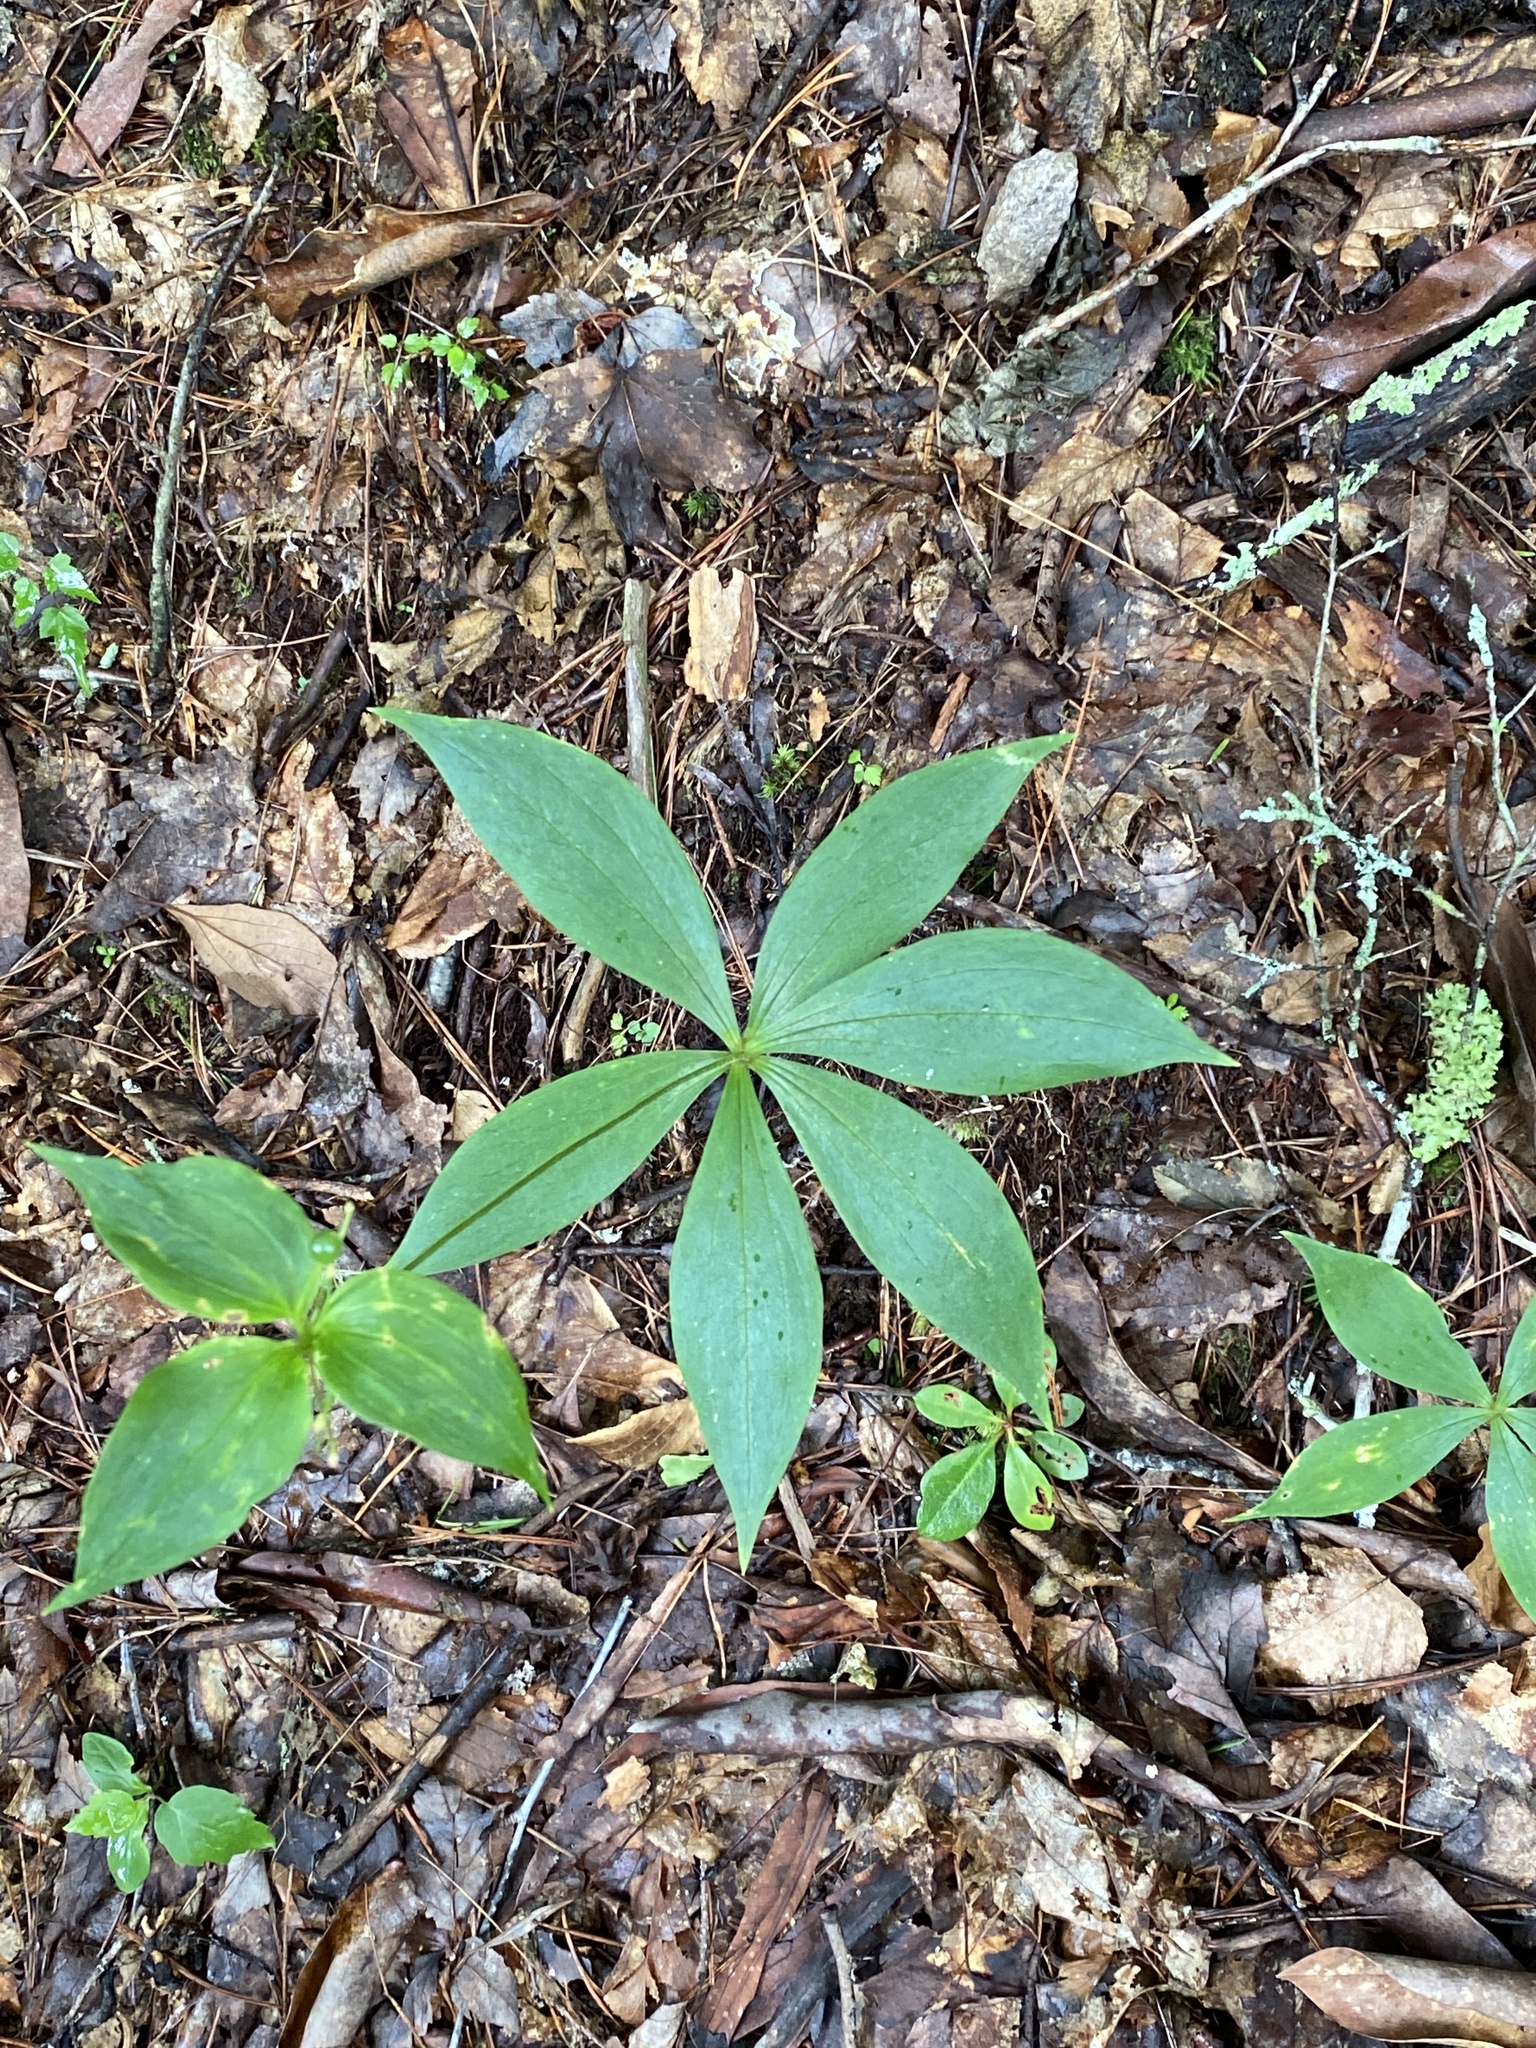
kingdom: Plantae
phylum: Tracheophyta
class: Liliopsida
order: Liliales
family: Liliaceae
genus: Medeola
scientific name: Medeola virginiana
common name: Indian cucumber-root
